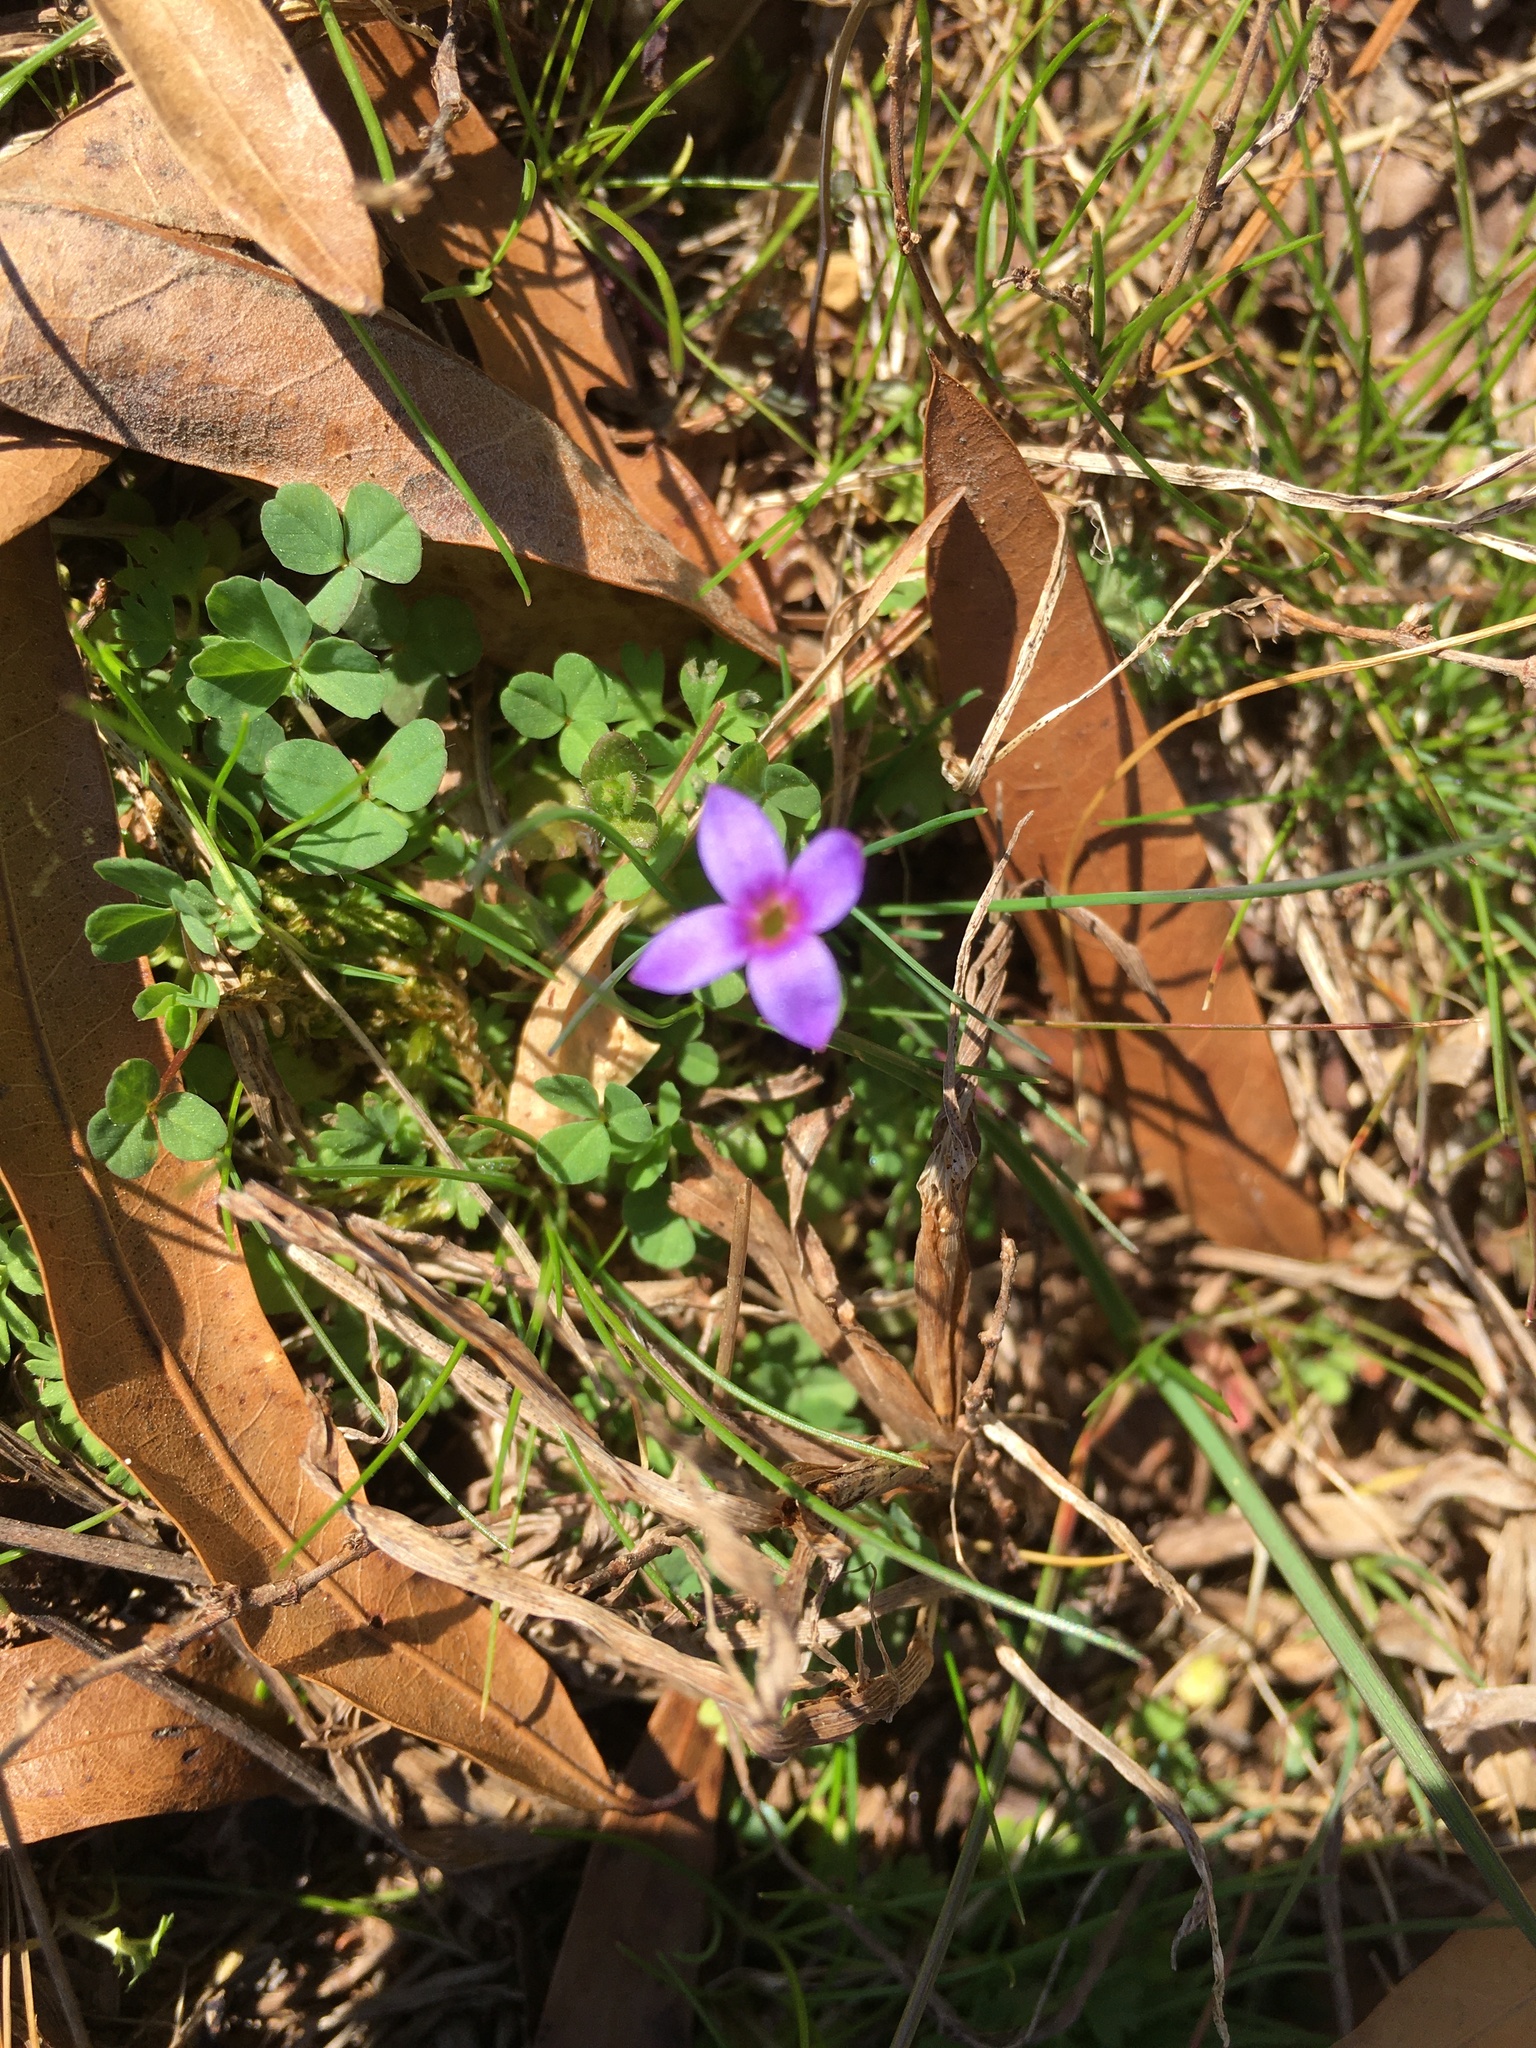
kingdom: Plantae
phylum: Tracheophyta
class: Magnoliopsida
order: Gentianales
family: Rubiaceae
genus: Houstonia
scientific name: Houstonia pusilla
